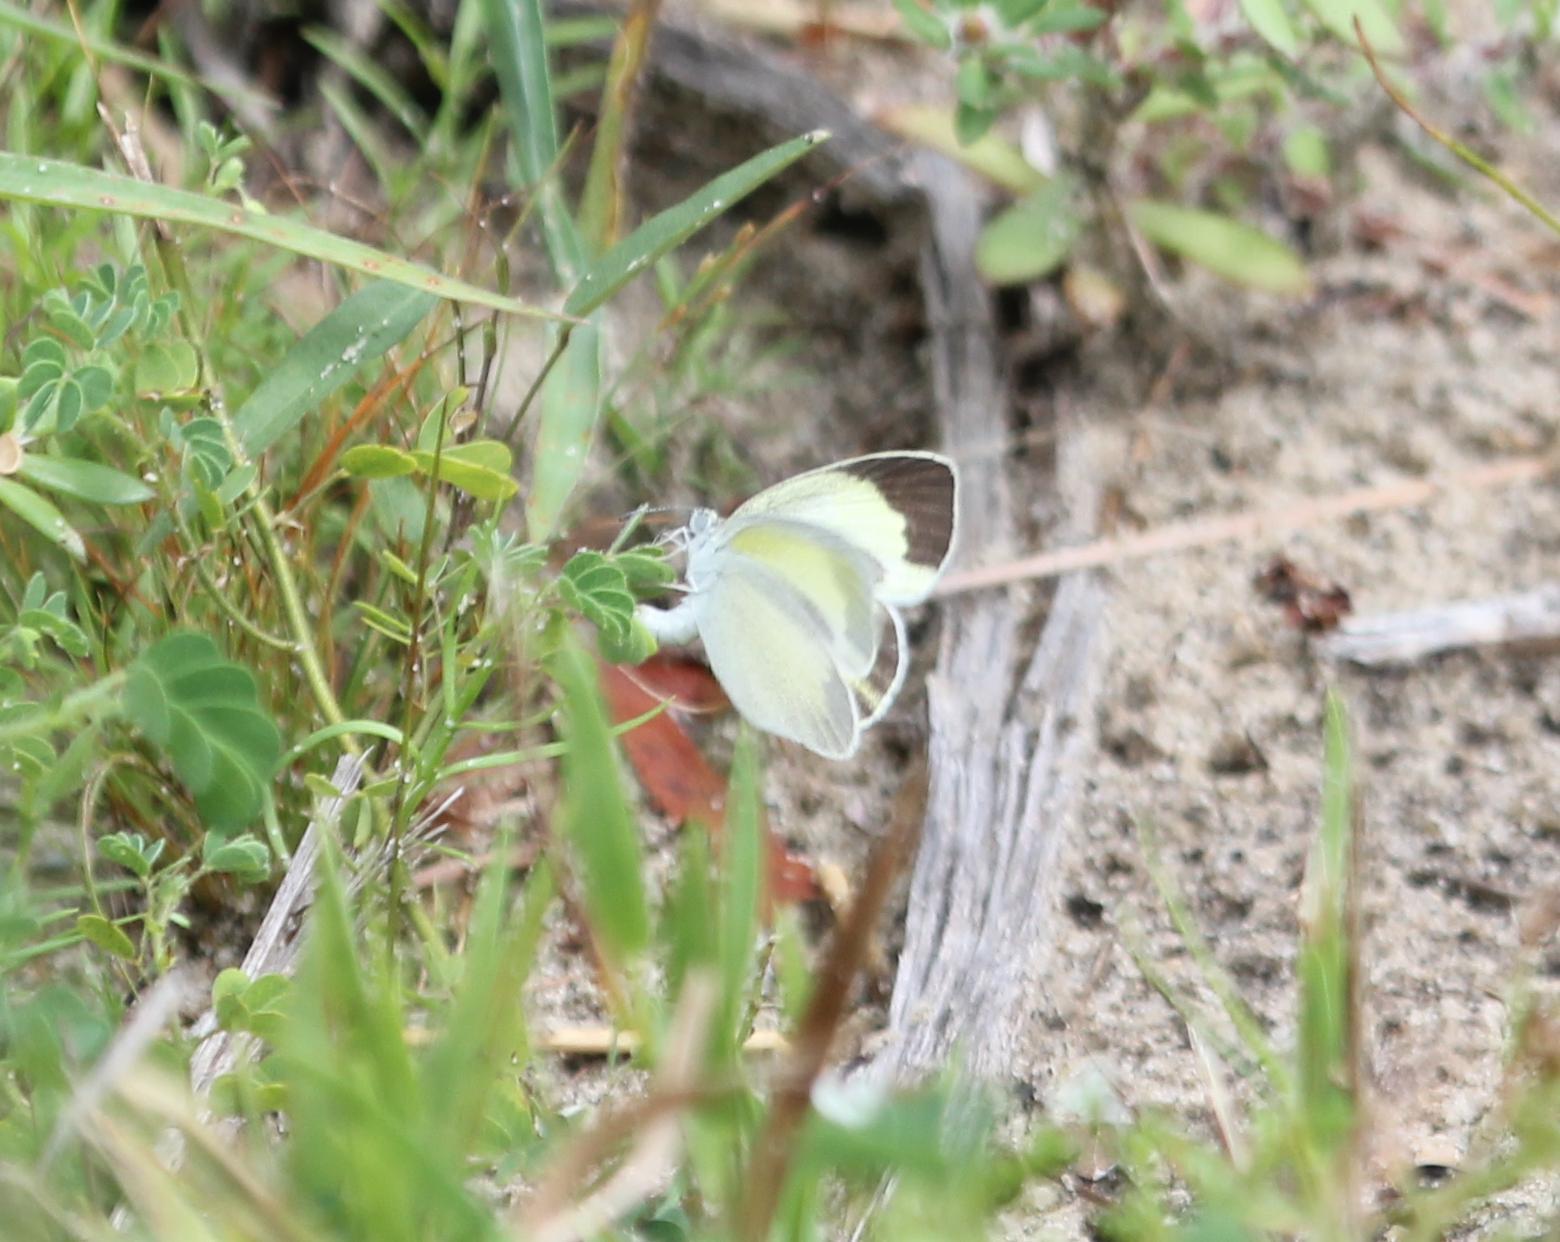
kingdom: Animalia
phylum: Arthropoda
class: Insecta
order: Lepidoptera
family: Pieridae
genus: Eurema
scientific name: Eurema daira
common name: Barred sulphur
